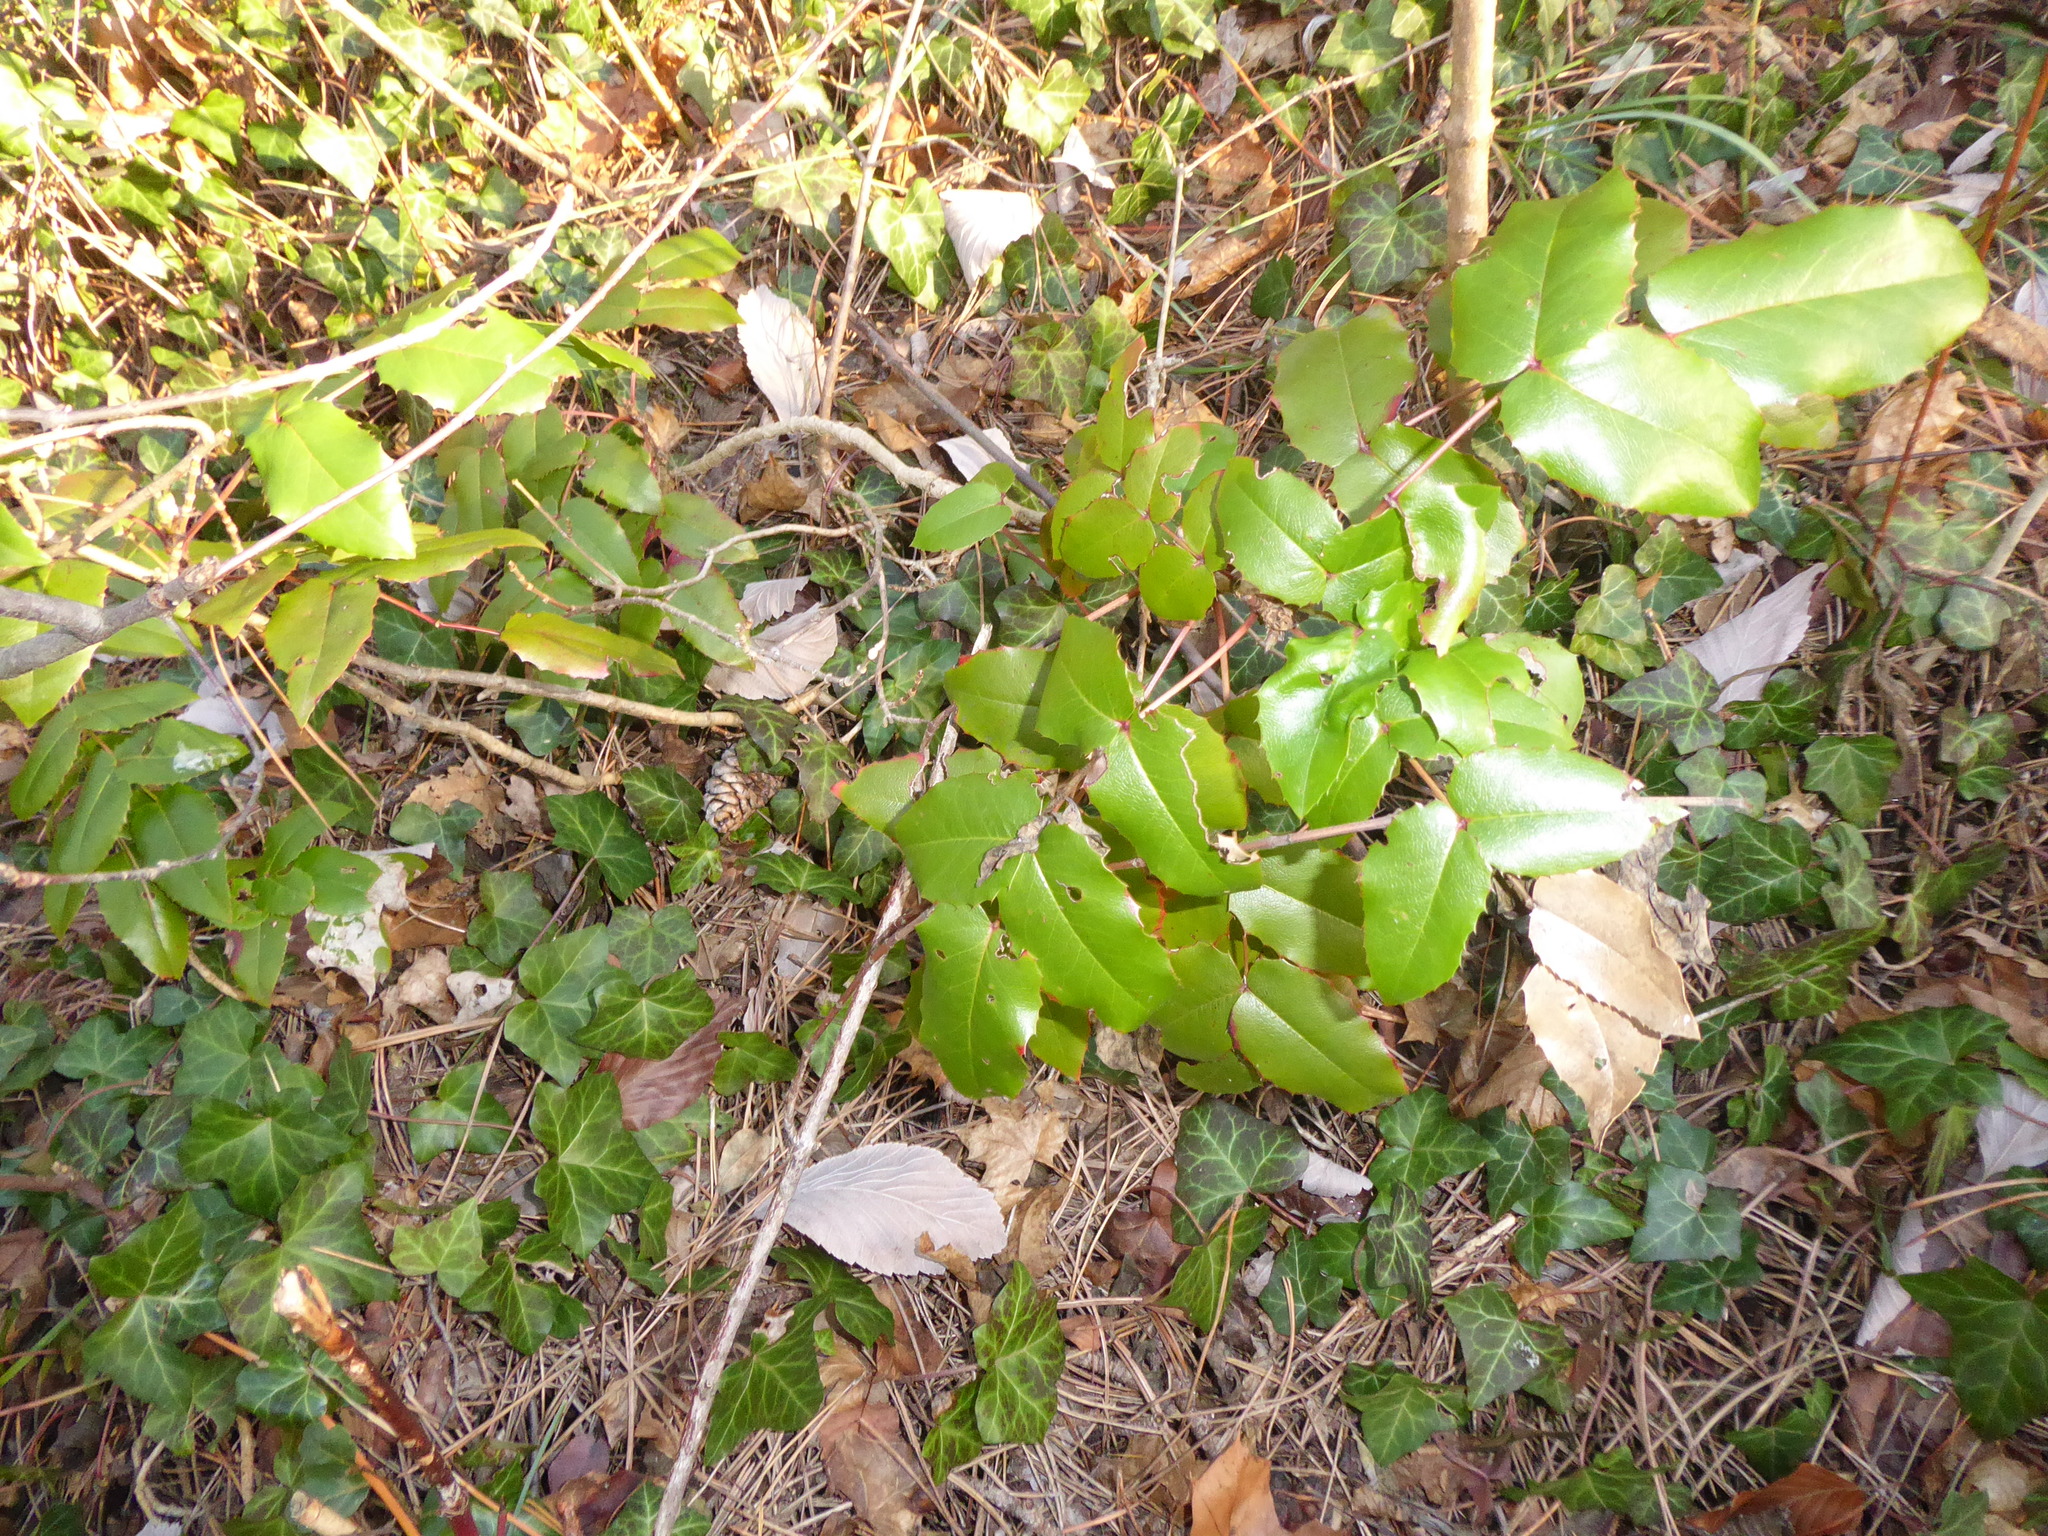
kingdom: Plantae
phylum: Tracheophyta
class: Magnoliopsida
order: Ranunculales
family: Berberidaceae
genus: Mahonia
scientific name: Mahonia aquifolium
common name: Oregon-grape
